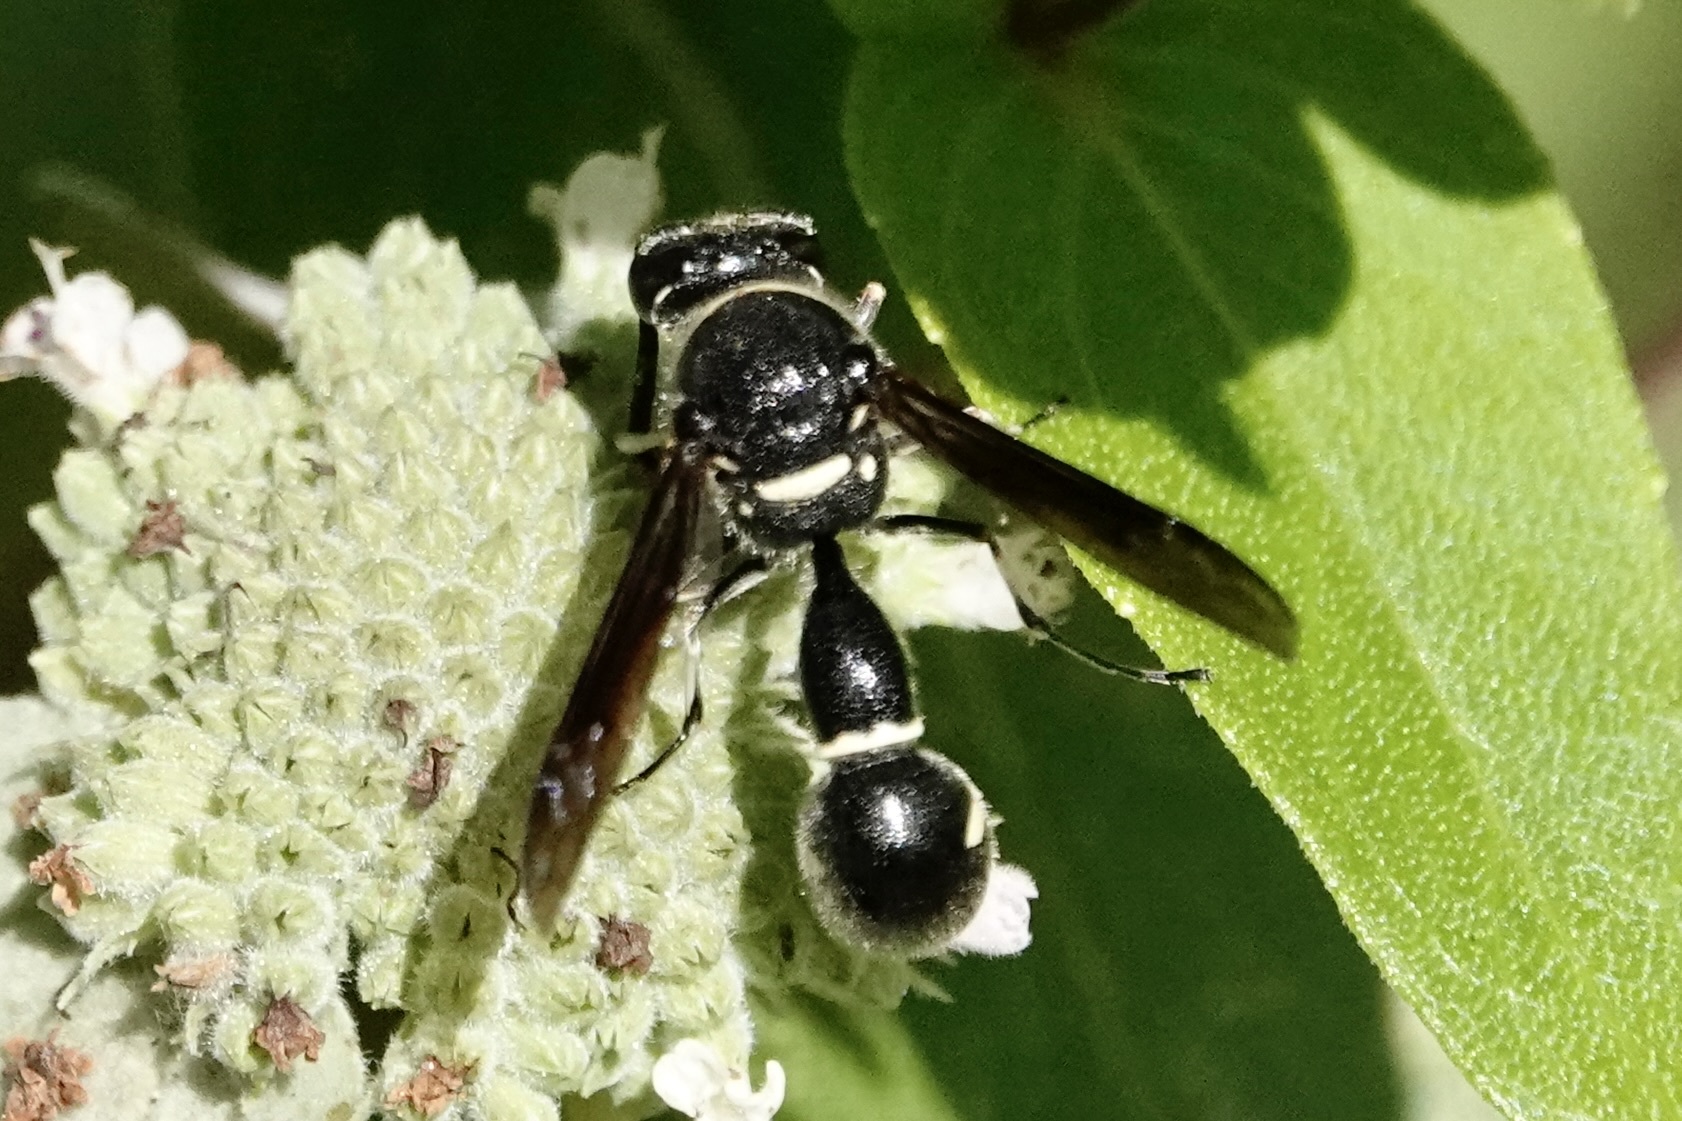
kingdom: Animalia
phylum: Arthropoda
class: Insecta
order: Hymenoptera
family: Vespidae
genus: Eumenes
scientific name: Eumenes fraternus
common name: Fraternal potter wasp
